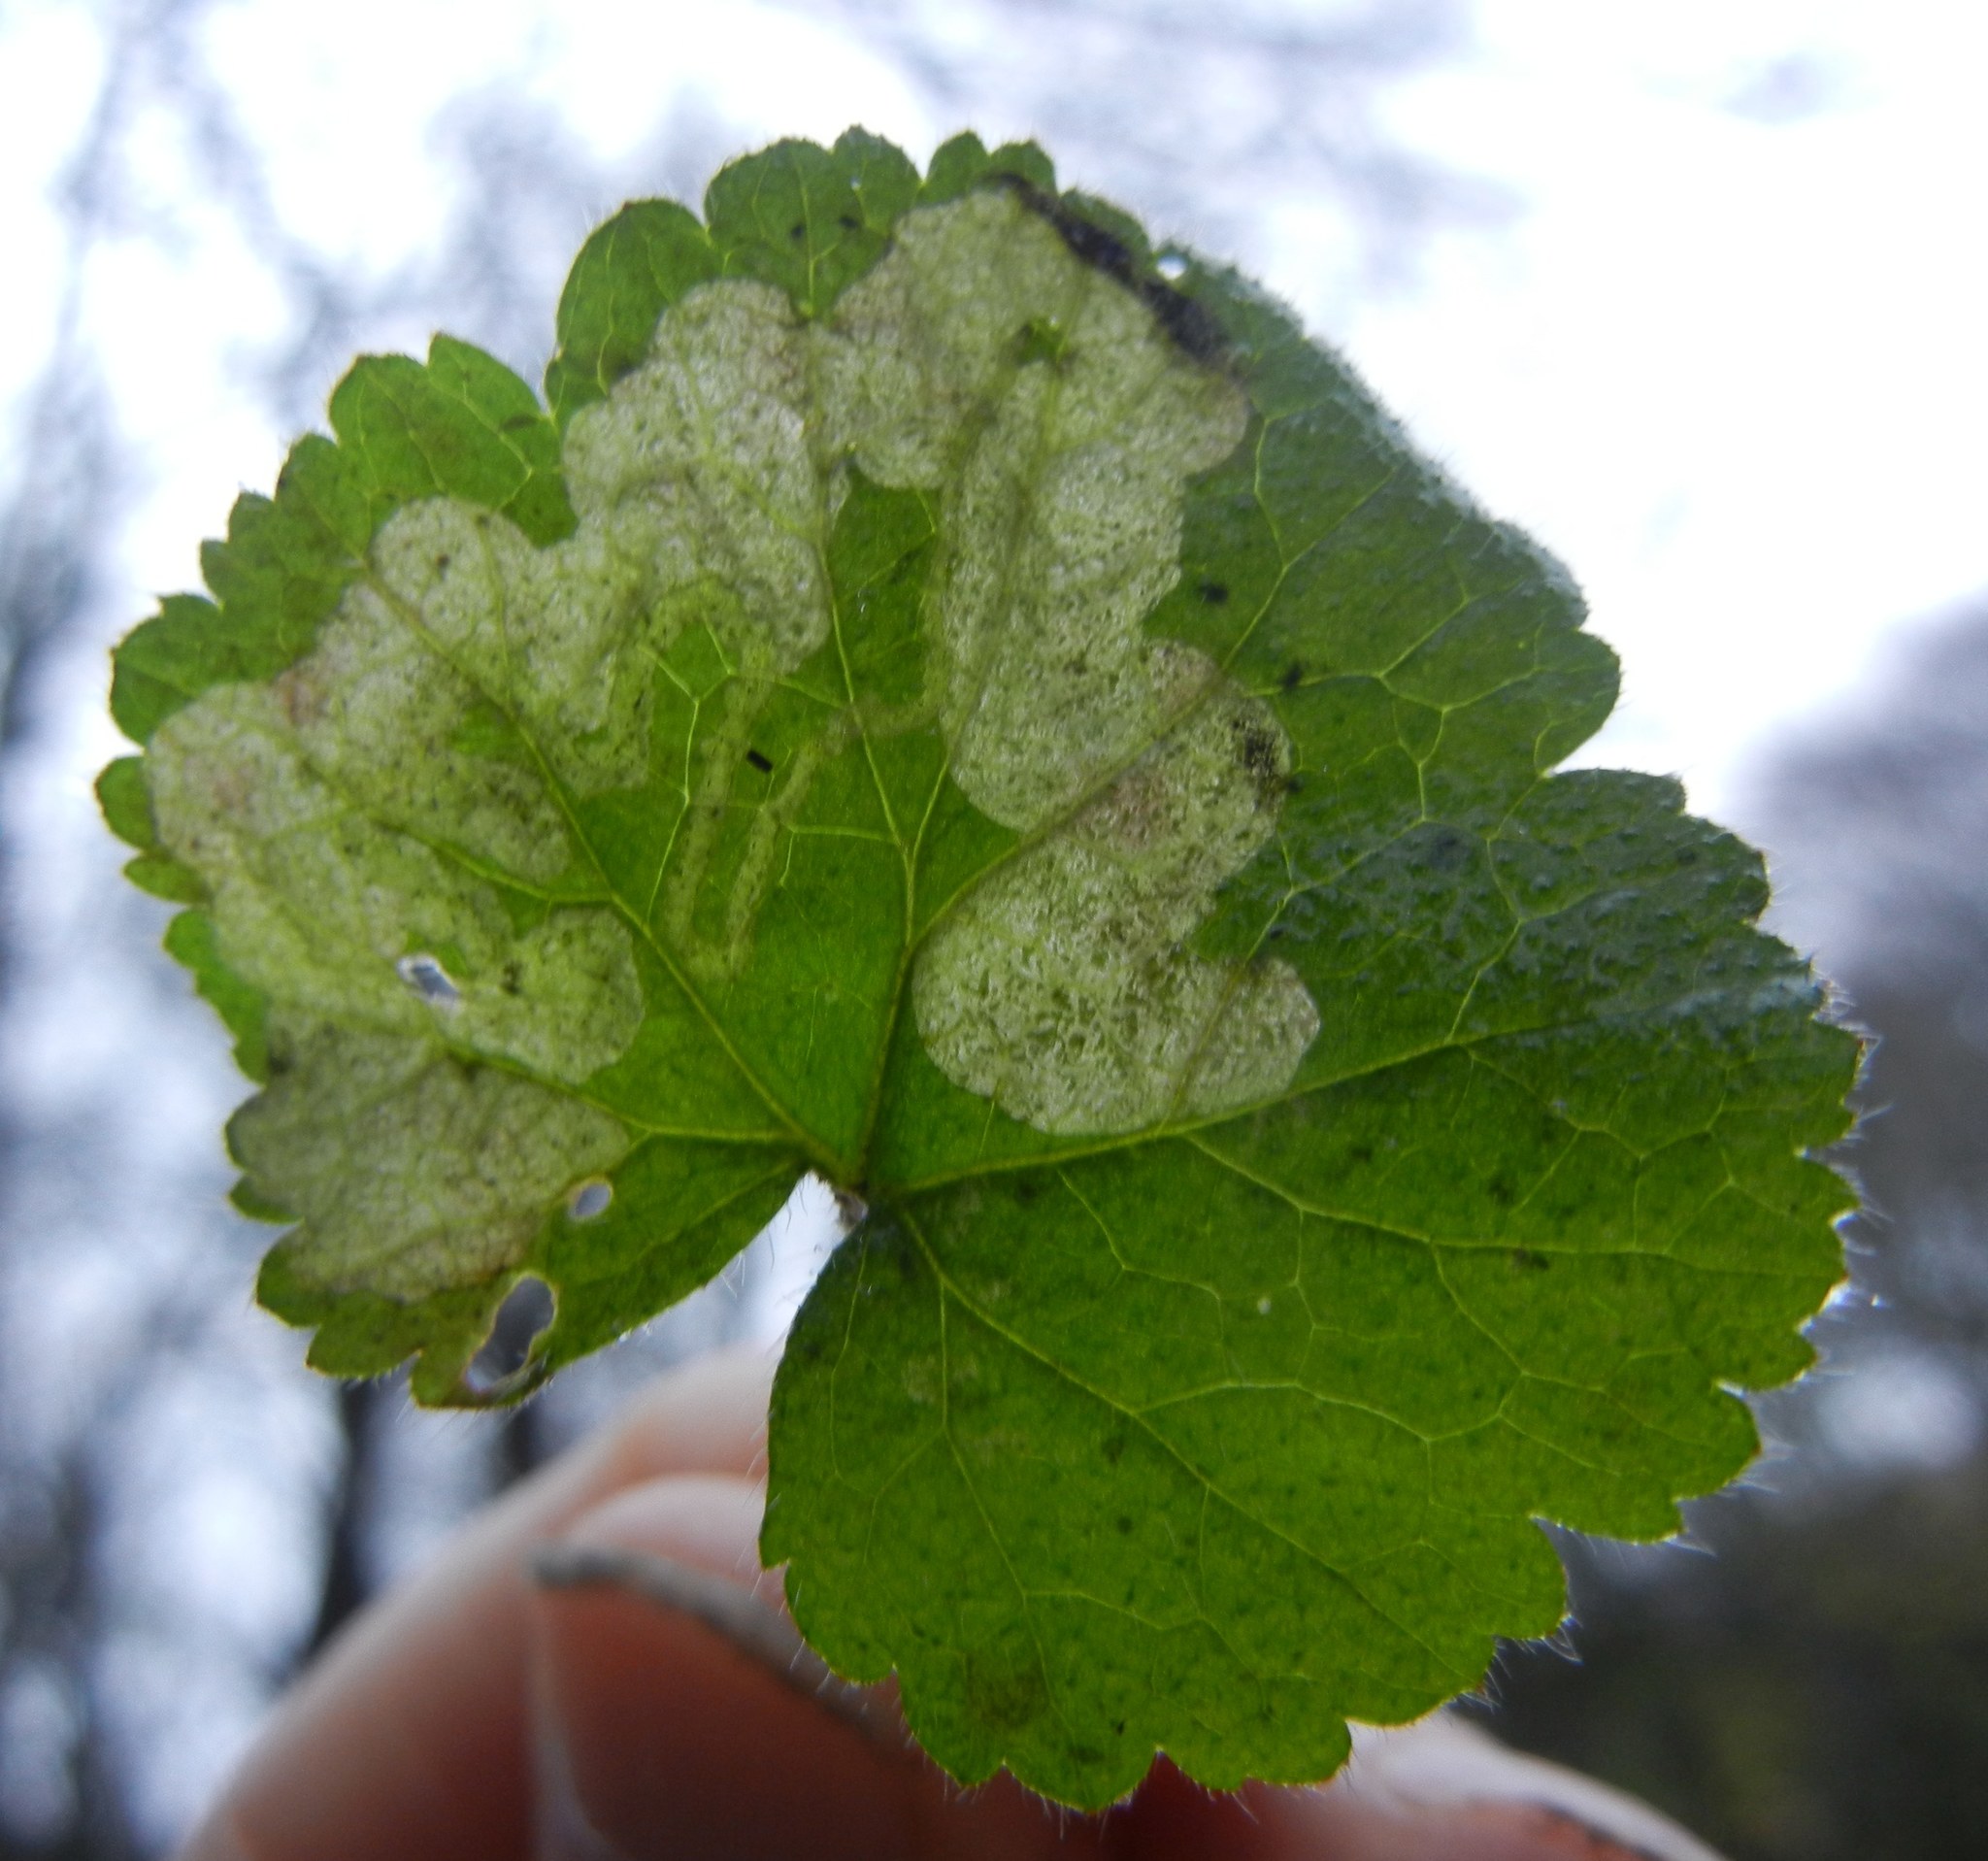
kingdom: Animalia
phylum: Arthropoda
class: Insecta
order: Diptera
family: Agromyzidae
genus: Agromyza
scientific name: Agromyza idaeiana
